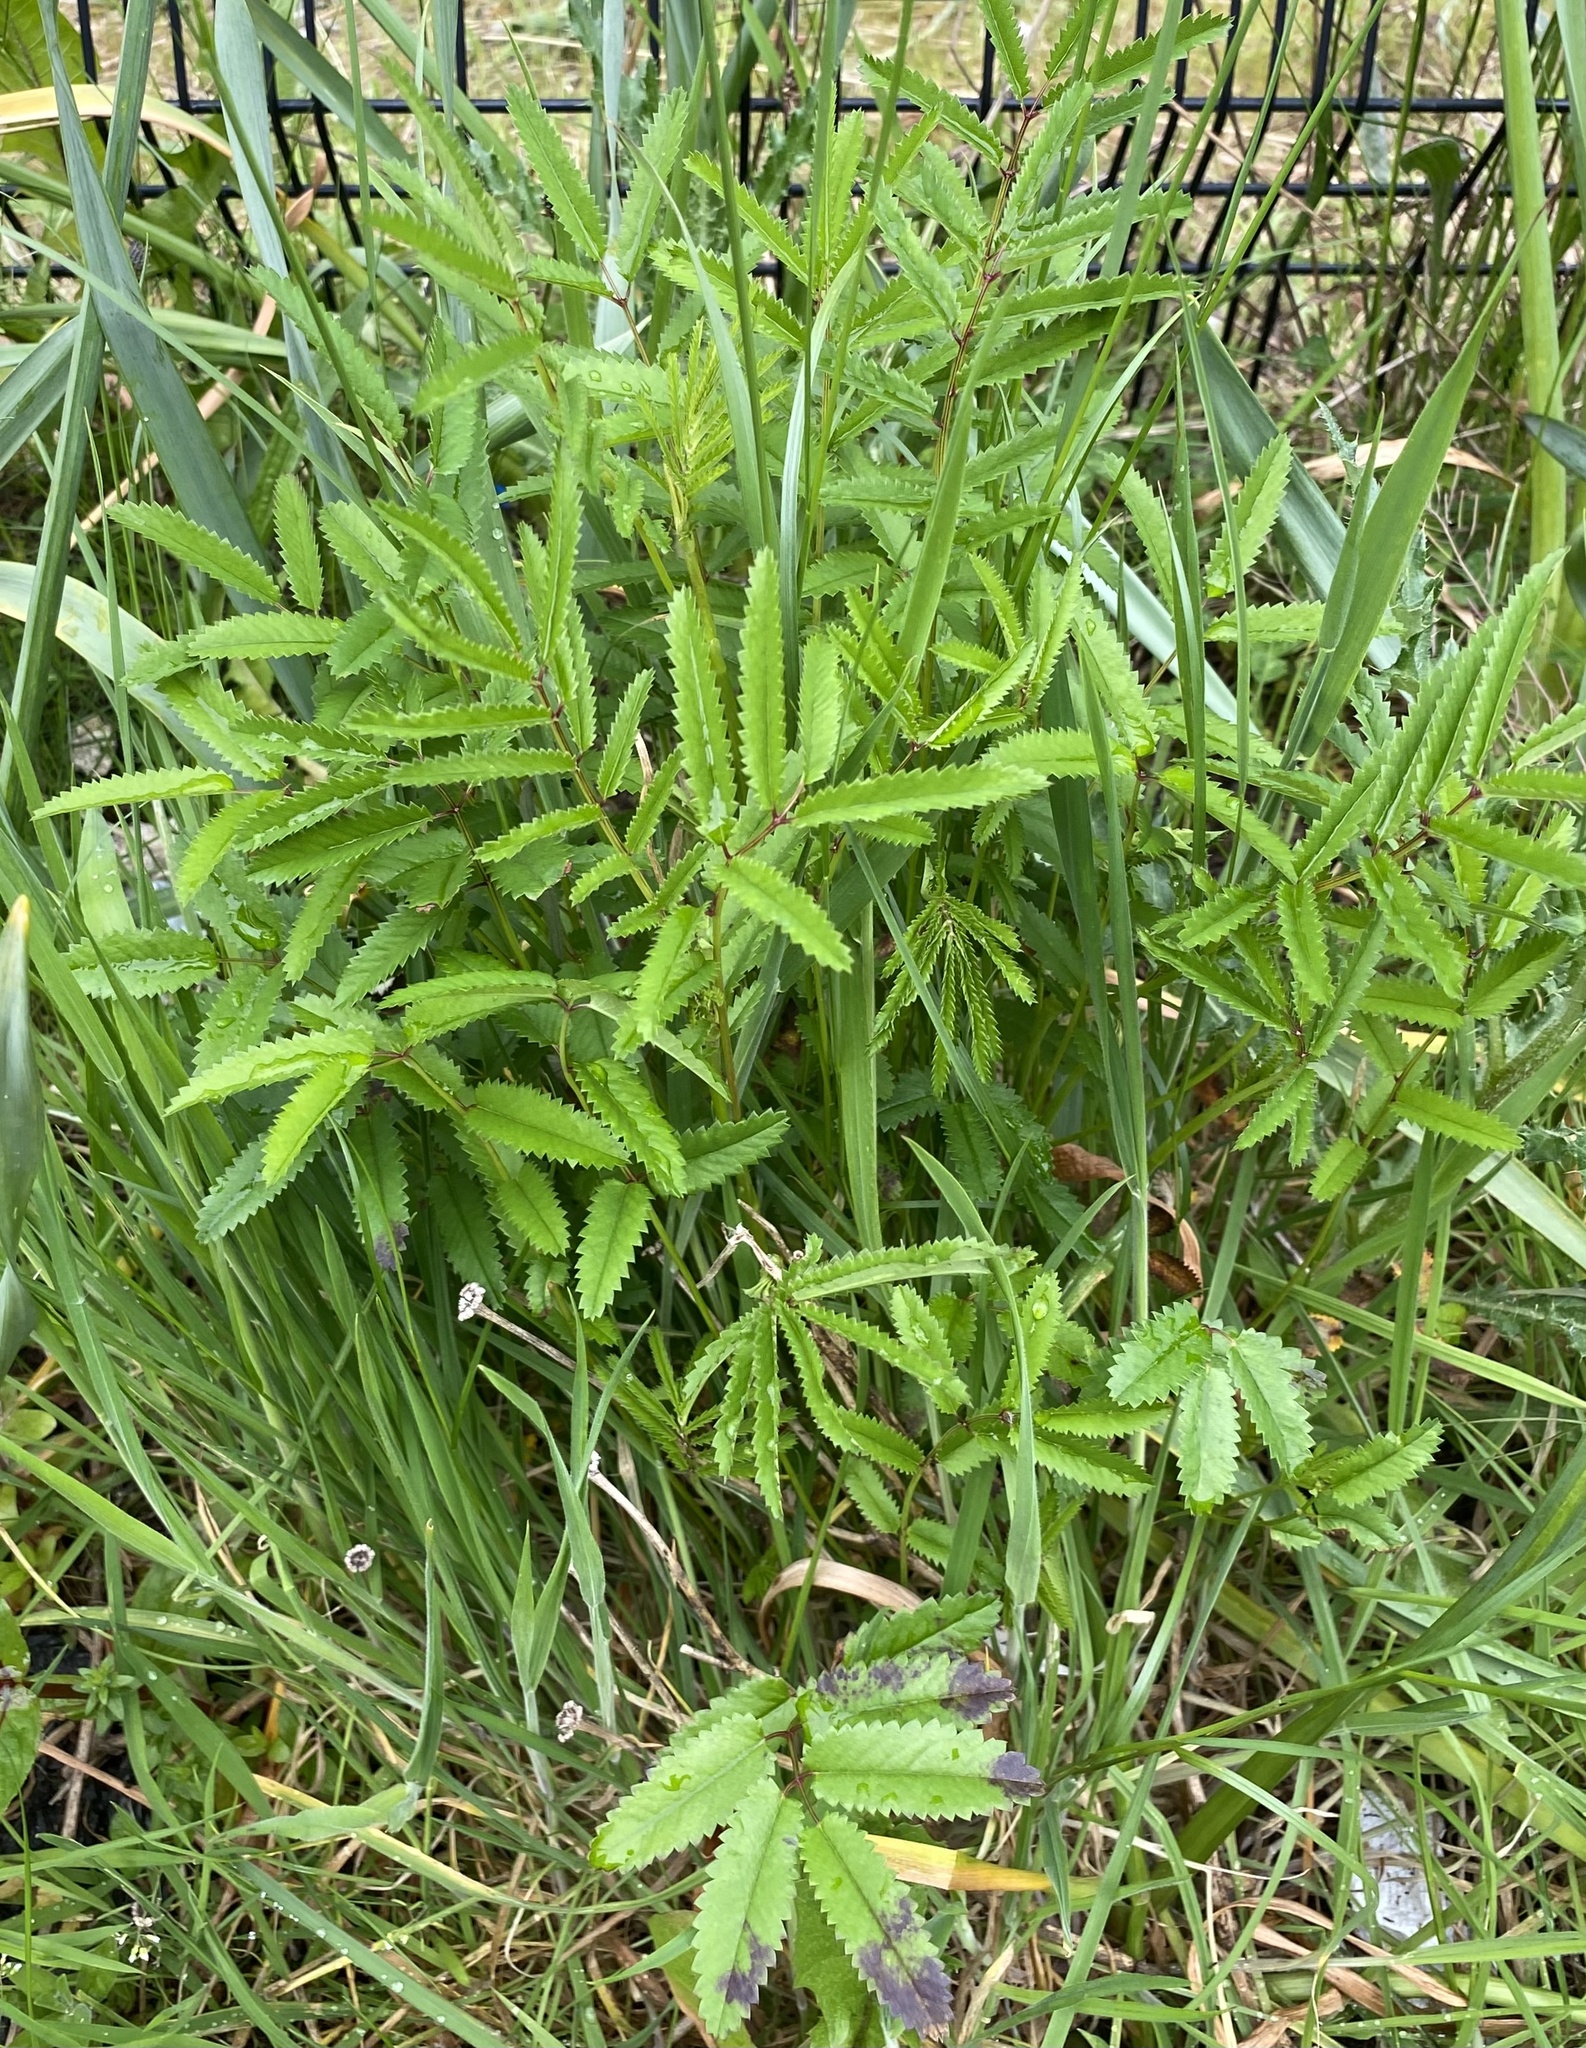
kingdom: Plantae
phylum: Tracheophyta
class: Magnoliopsida
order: Rosales
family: Rosaceae
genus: Sanguisorba
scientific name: Sanguisorba officinalis
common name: Great burnet
